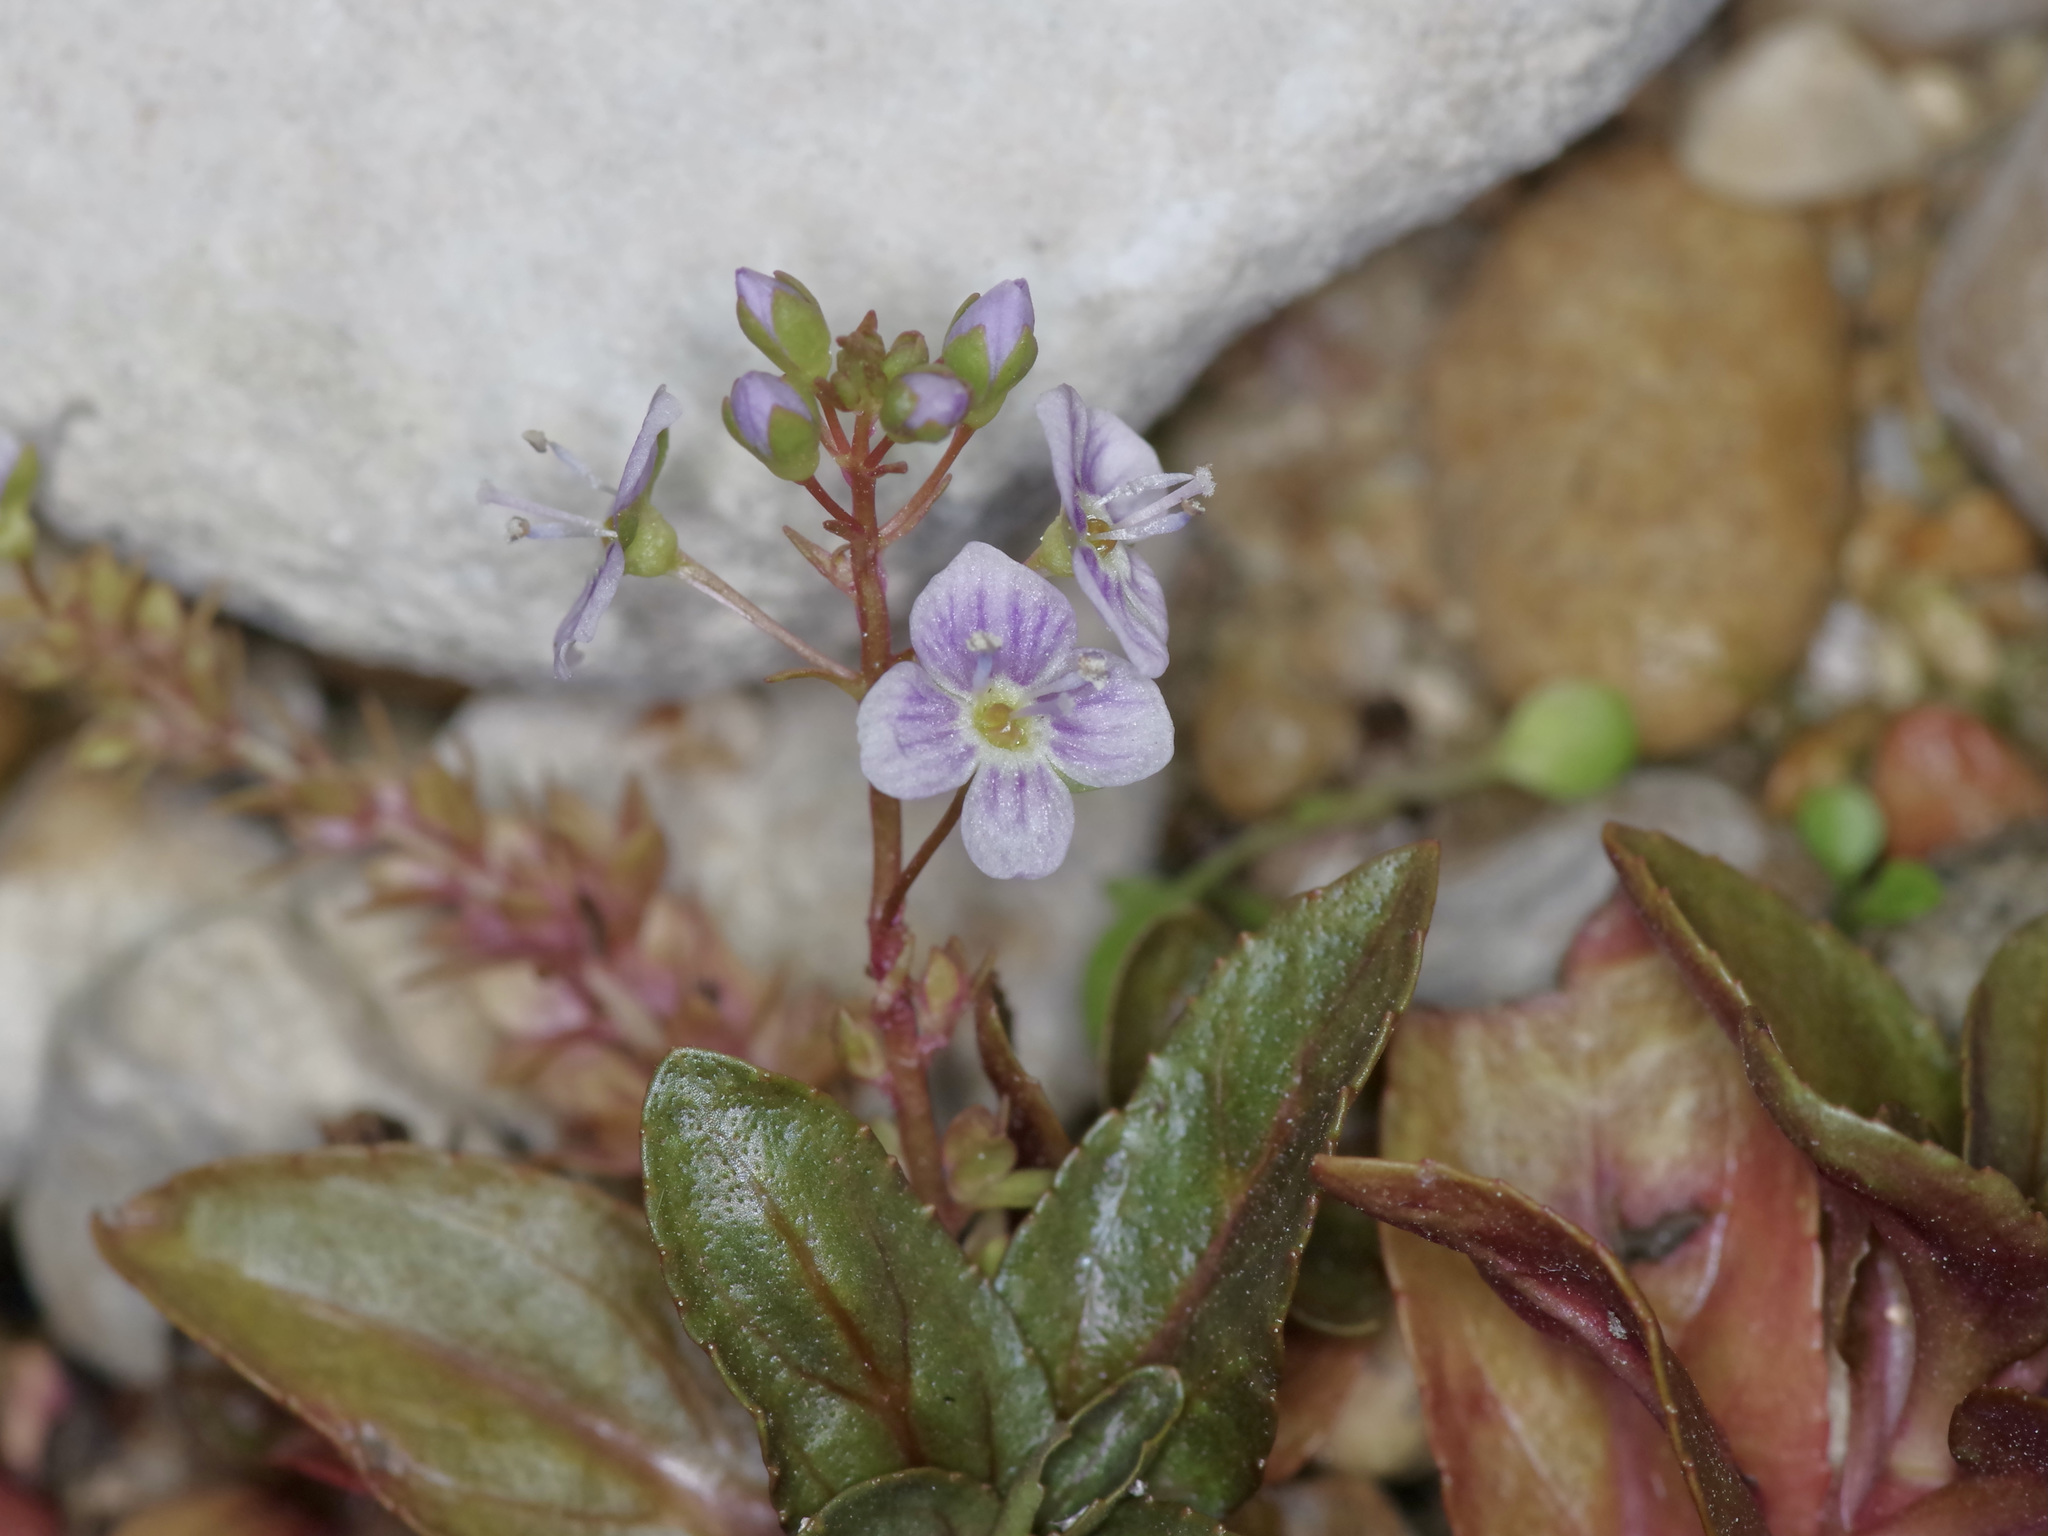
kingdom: Plantae
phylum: Tracheophyta
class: Magnoliopsida
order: Lamiales
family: Plantaginaceae
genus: Veronica
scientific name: Veronica anagallis-aquatica
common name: Water speedwell
